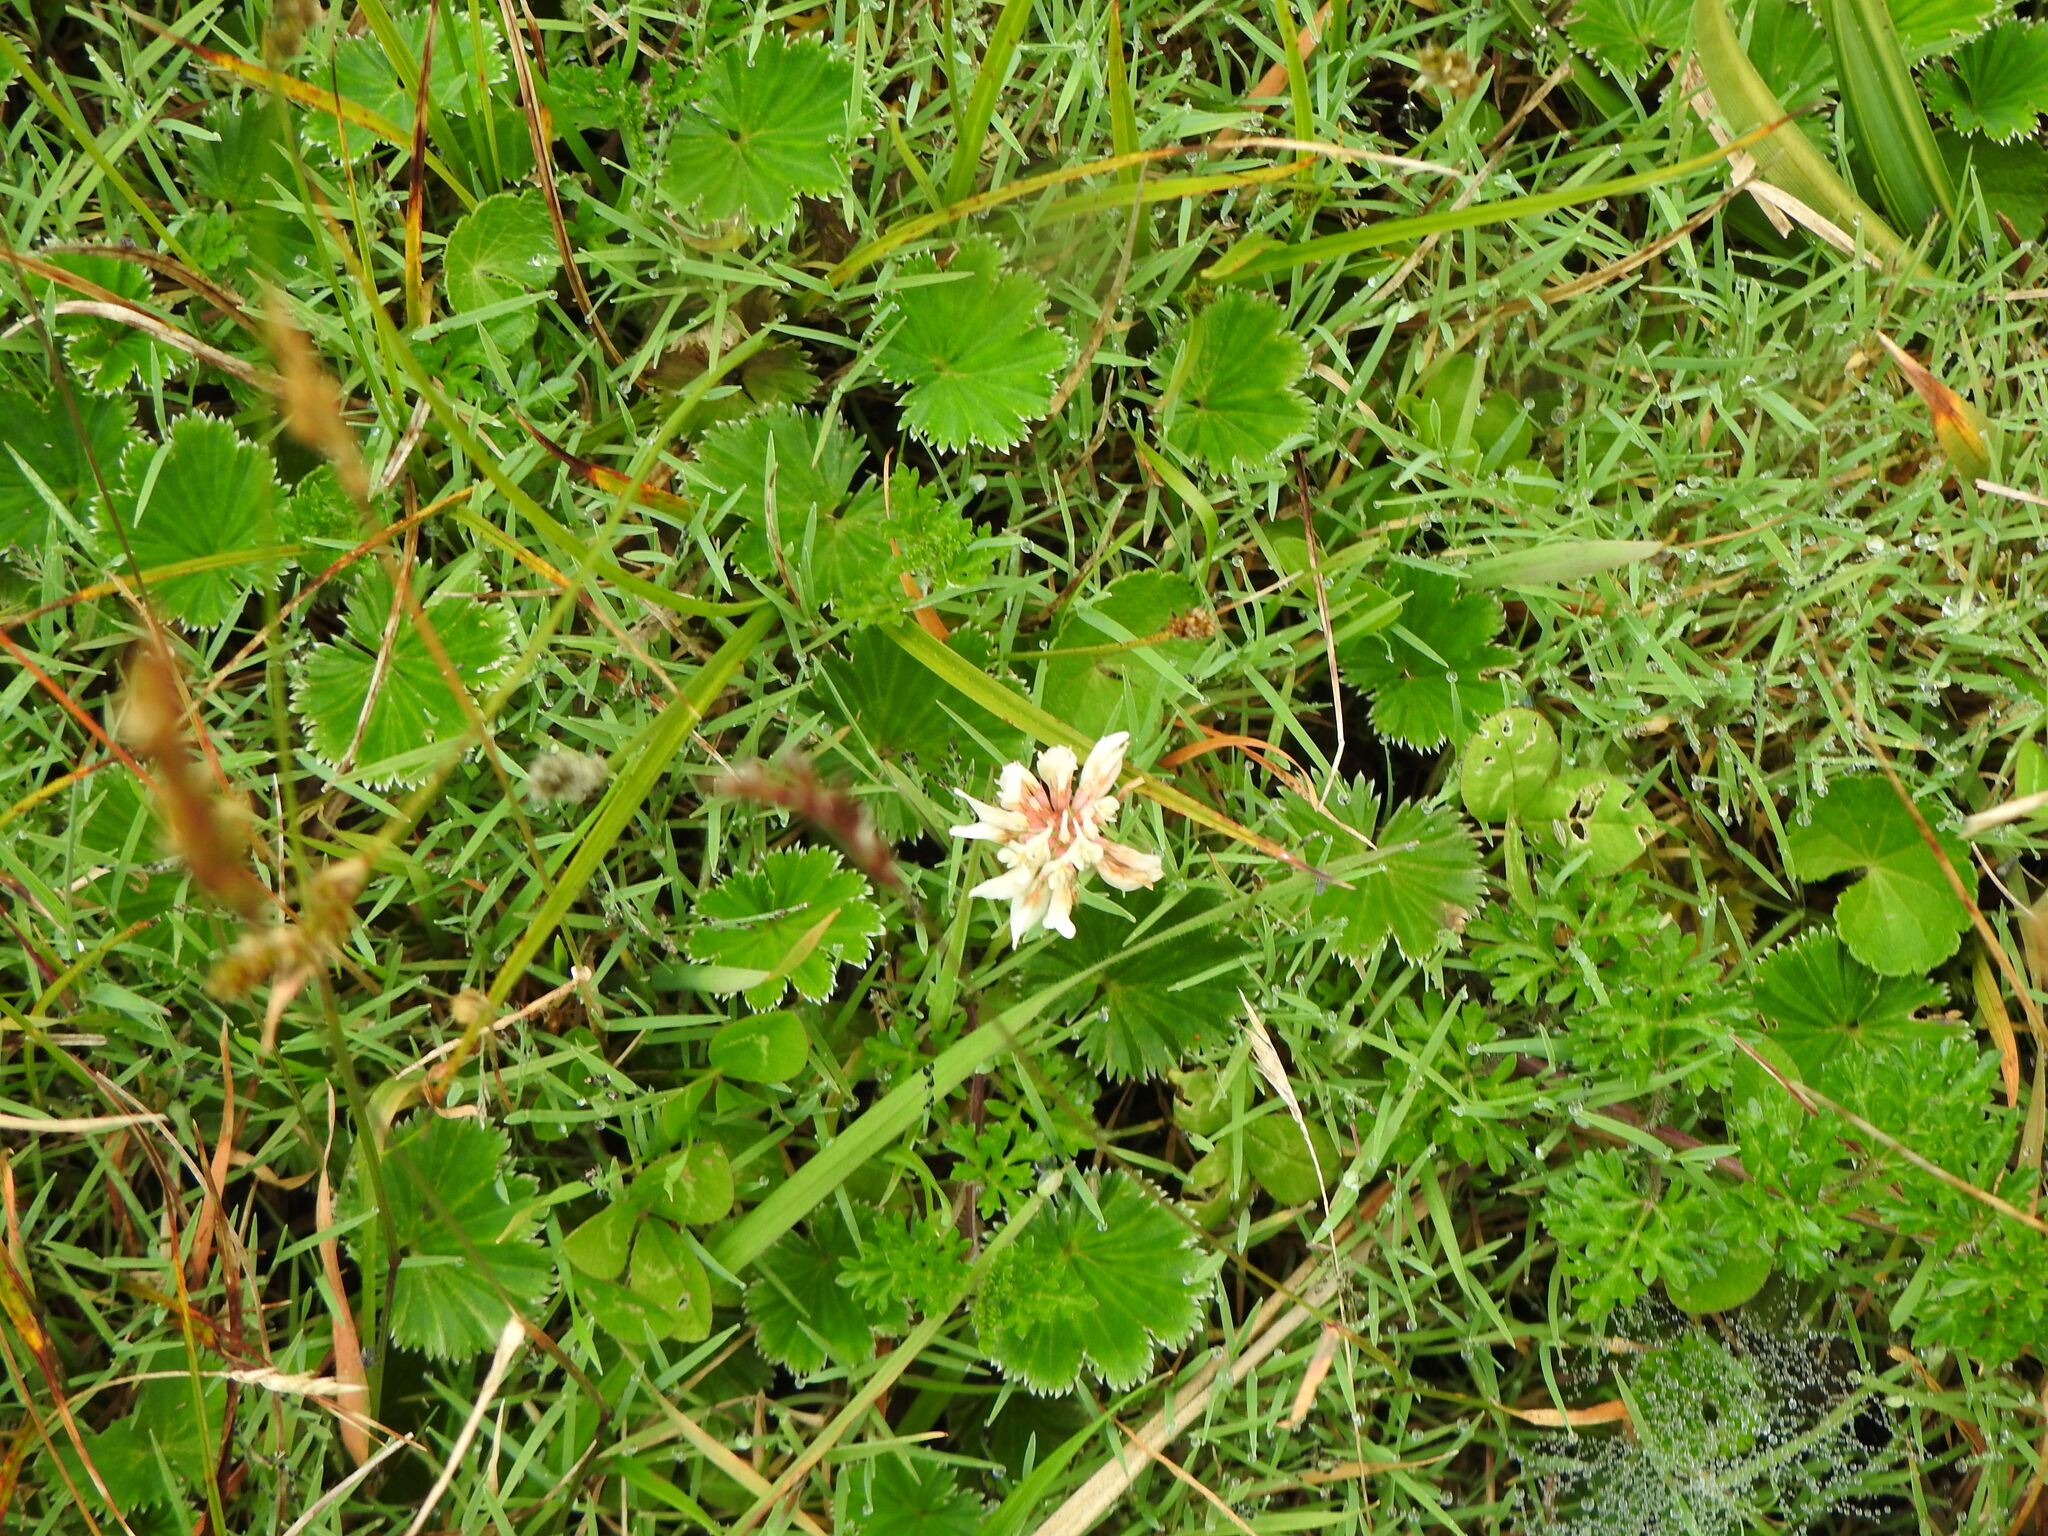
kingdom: Plantae
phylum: Tracheophyta
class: Magnoliopsida
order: Fabales
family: Fabaceae
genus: Trifolium
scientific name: Trifolium repens
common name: White clover
